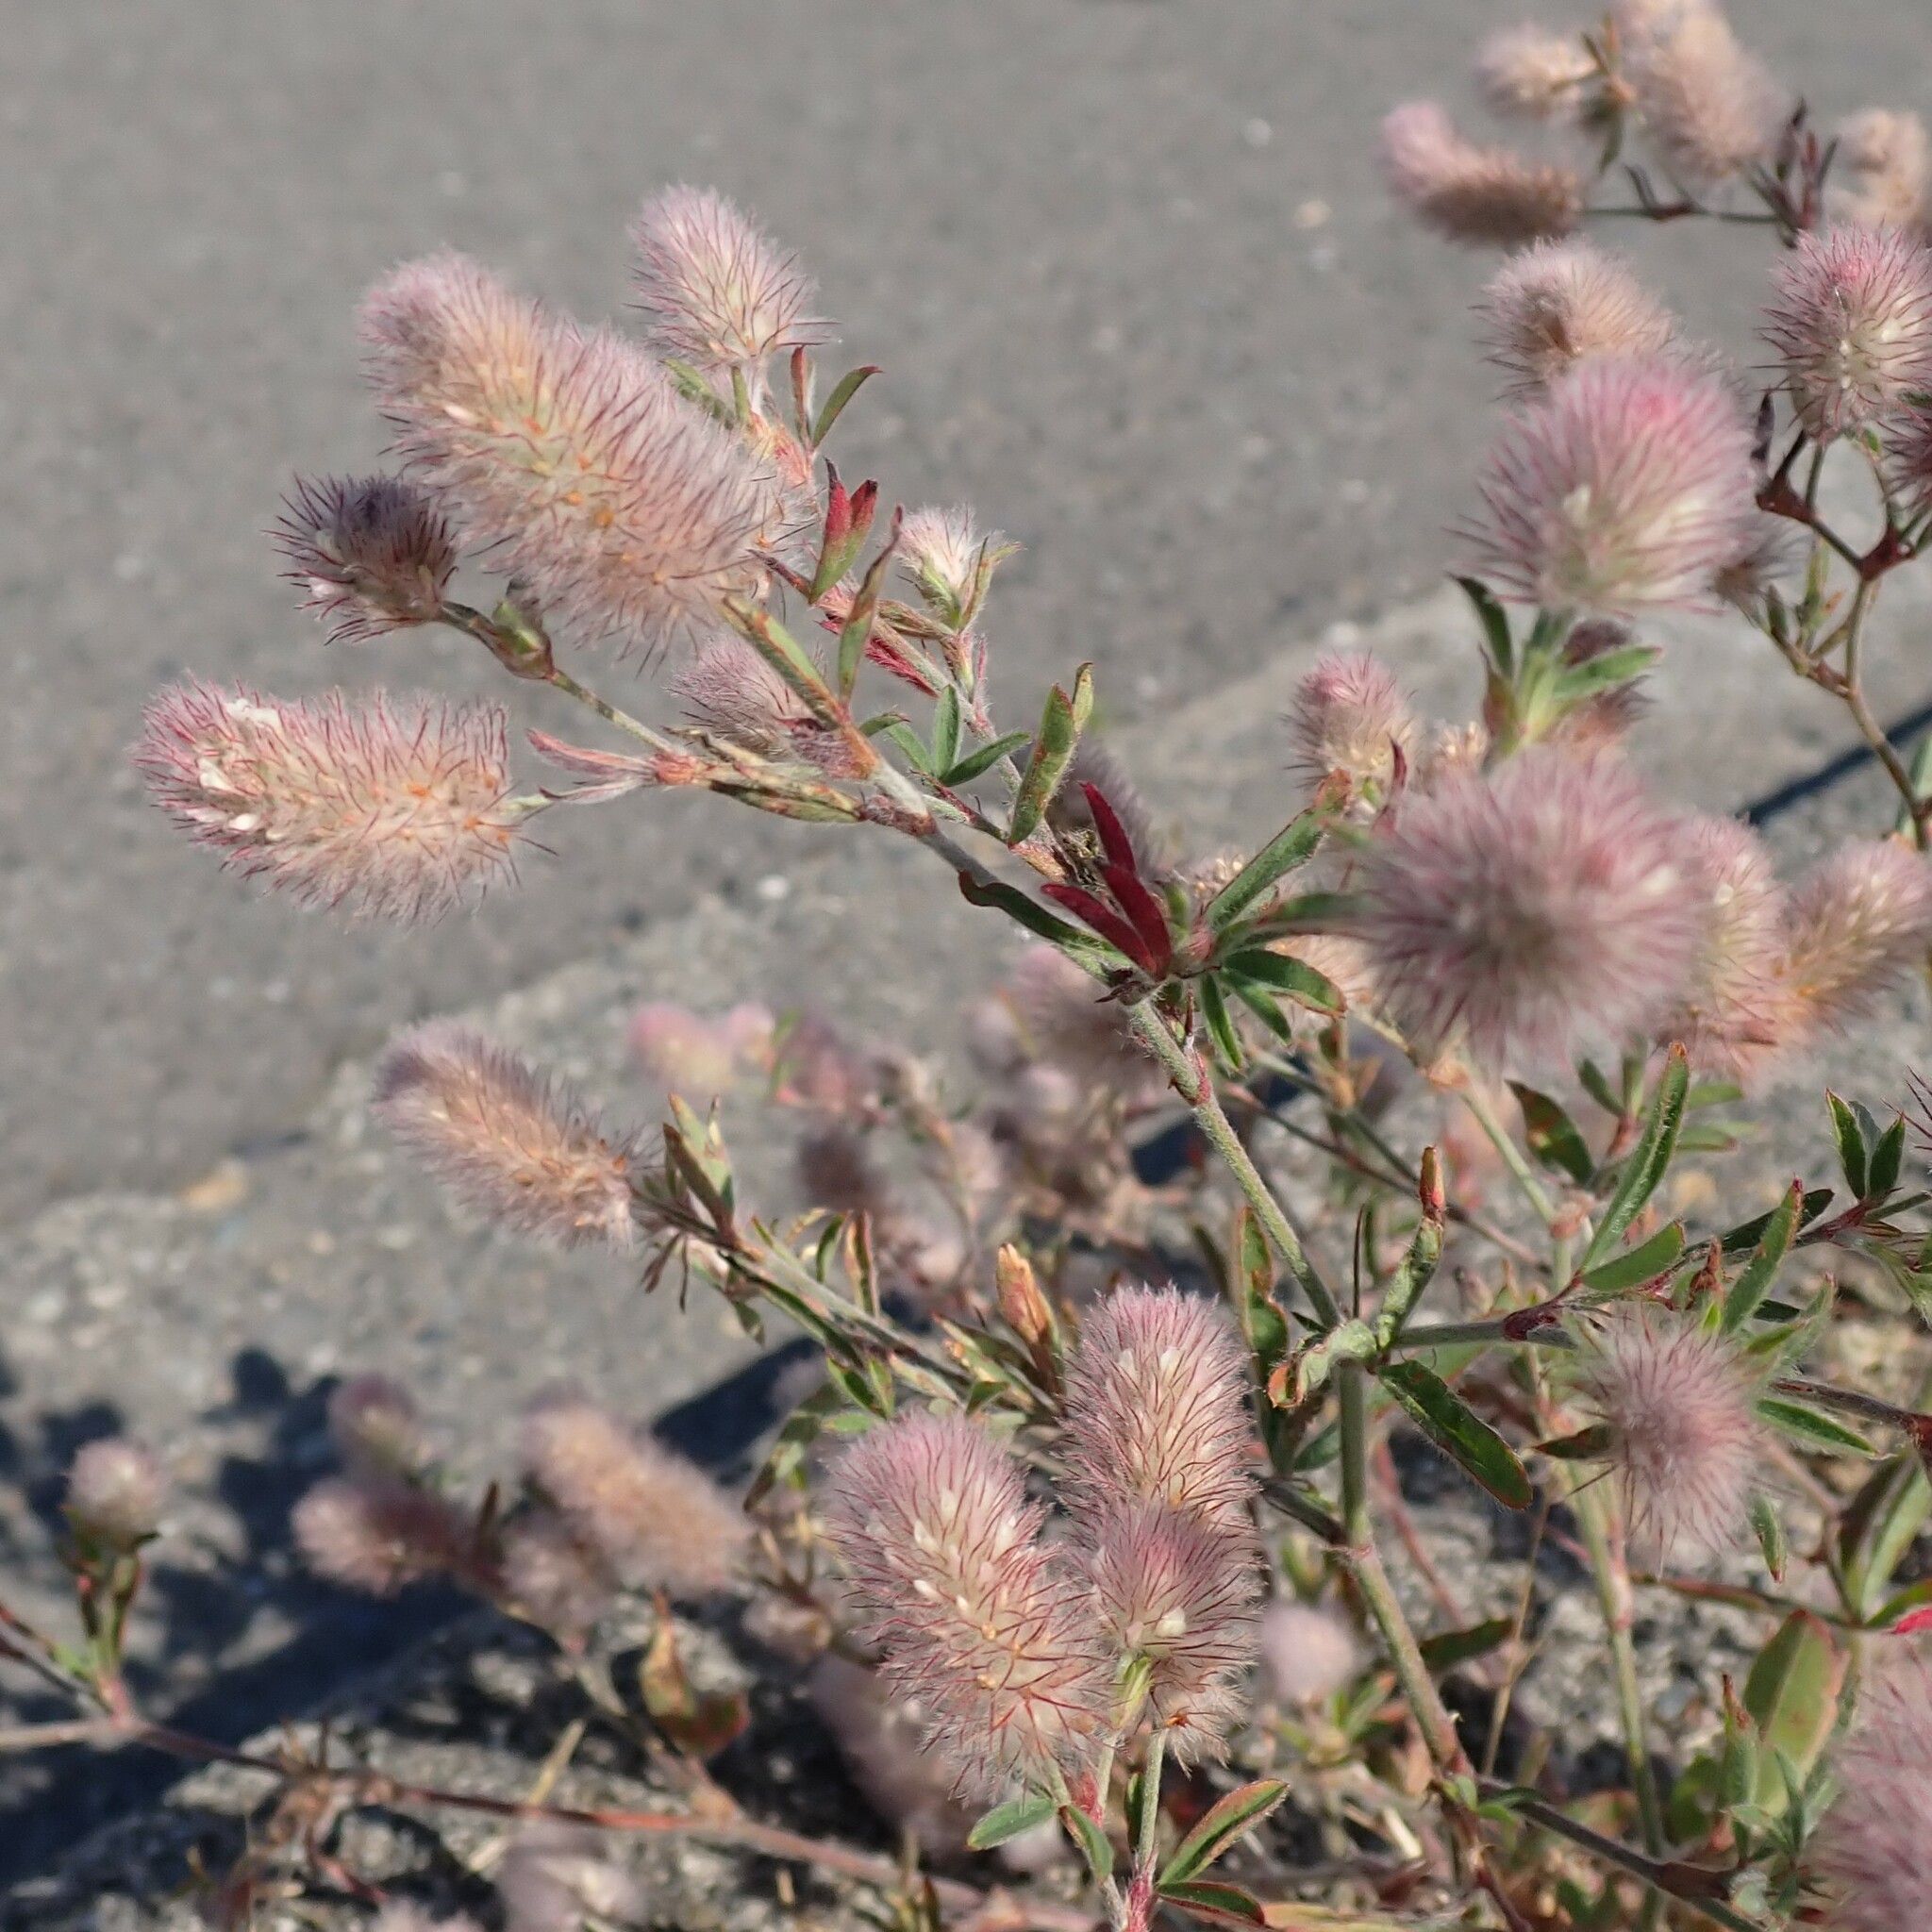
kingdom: Plantae
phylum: Tracheophyta
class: Magnoliopsida
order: Fabales
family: Fabaceae
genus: Trifolium
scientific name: Trifolium arvense
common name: Hare's-foot clover
